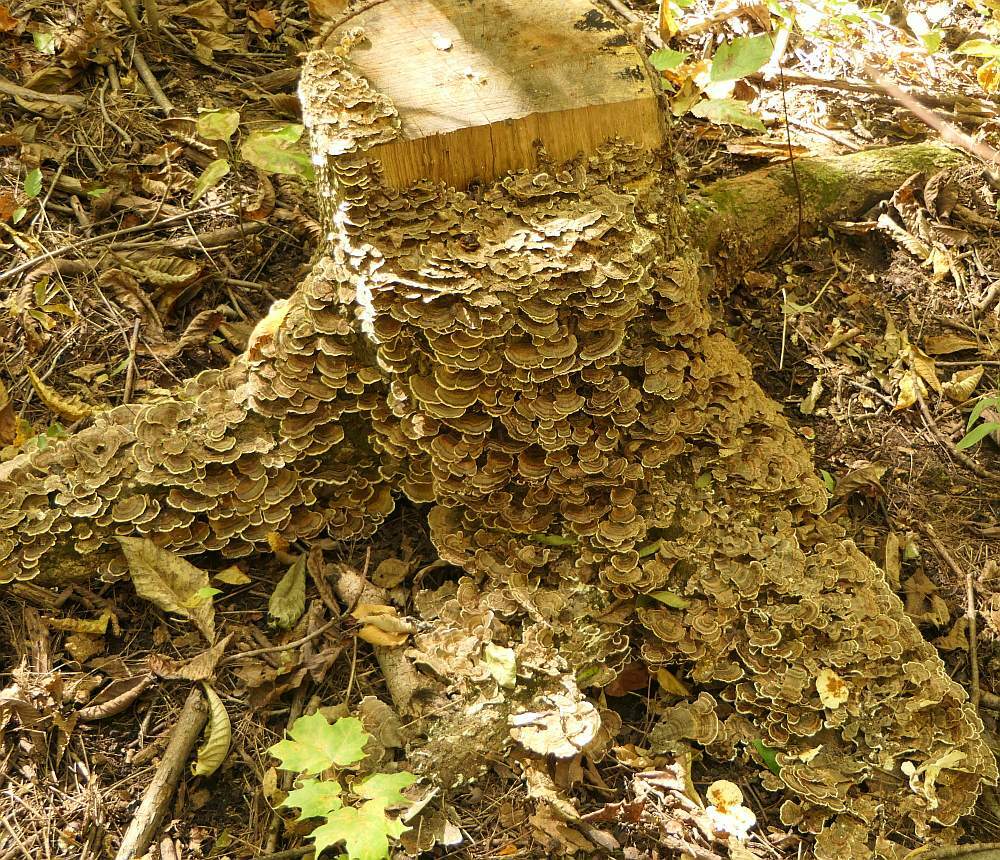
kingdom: Fungi
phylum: Basidiomycota
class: Agaricomycetes
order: Polyporales
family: Polyporaceae
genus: Trametes
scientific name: Trametes versicolor
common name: Turkeytail
